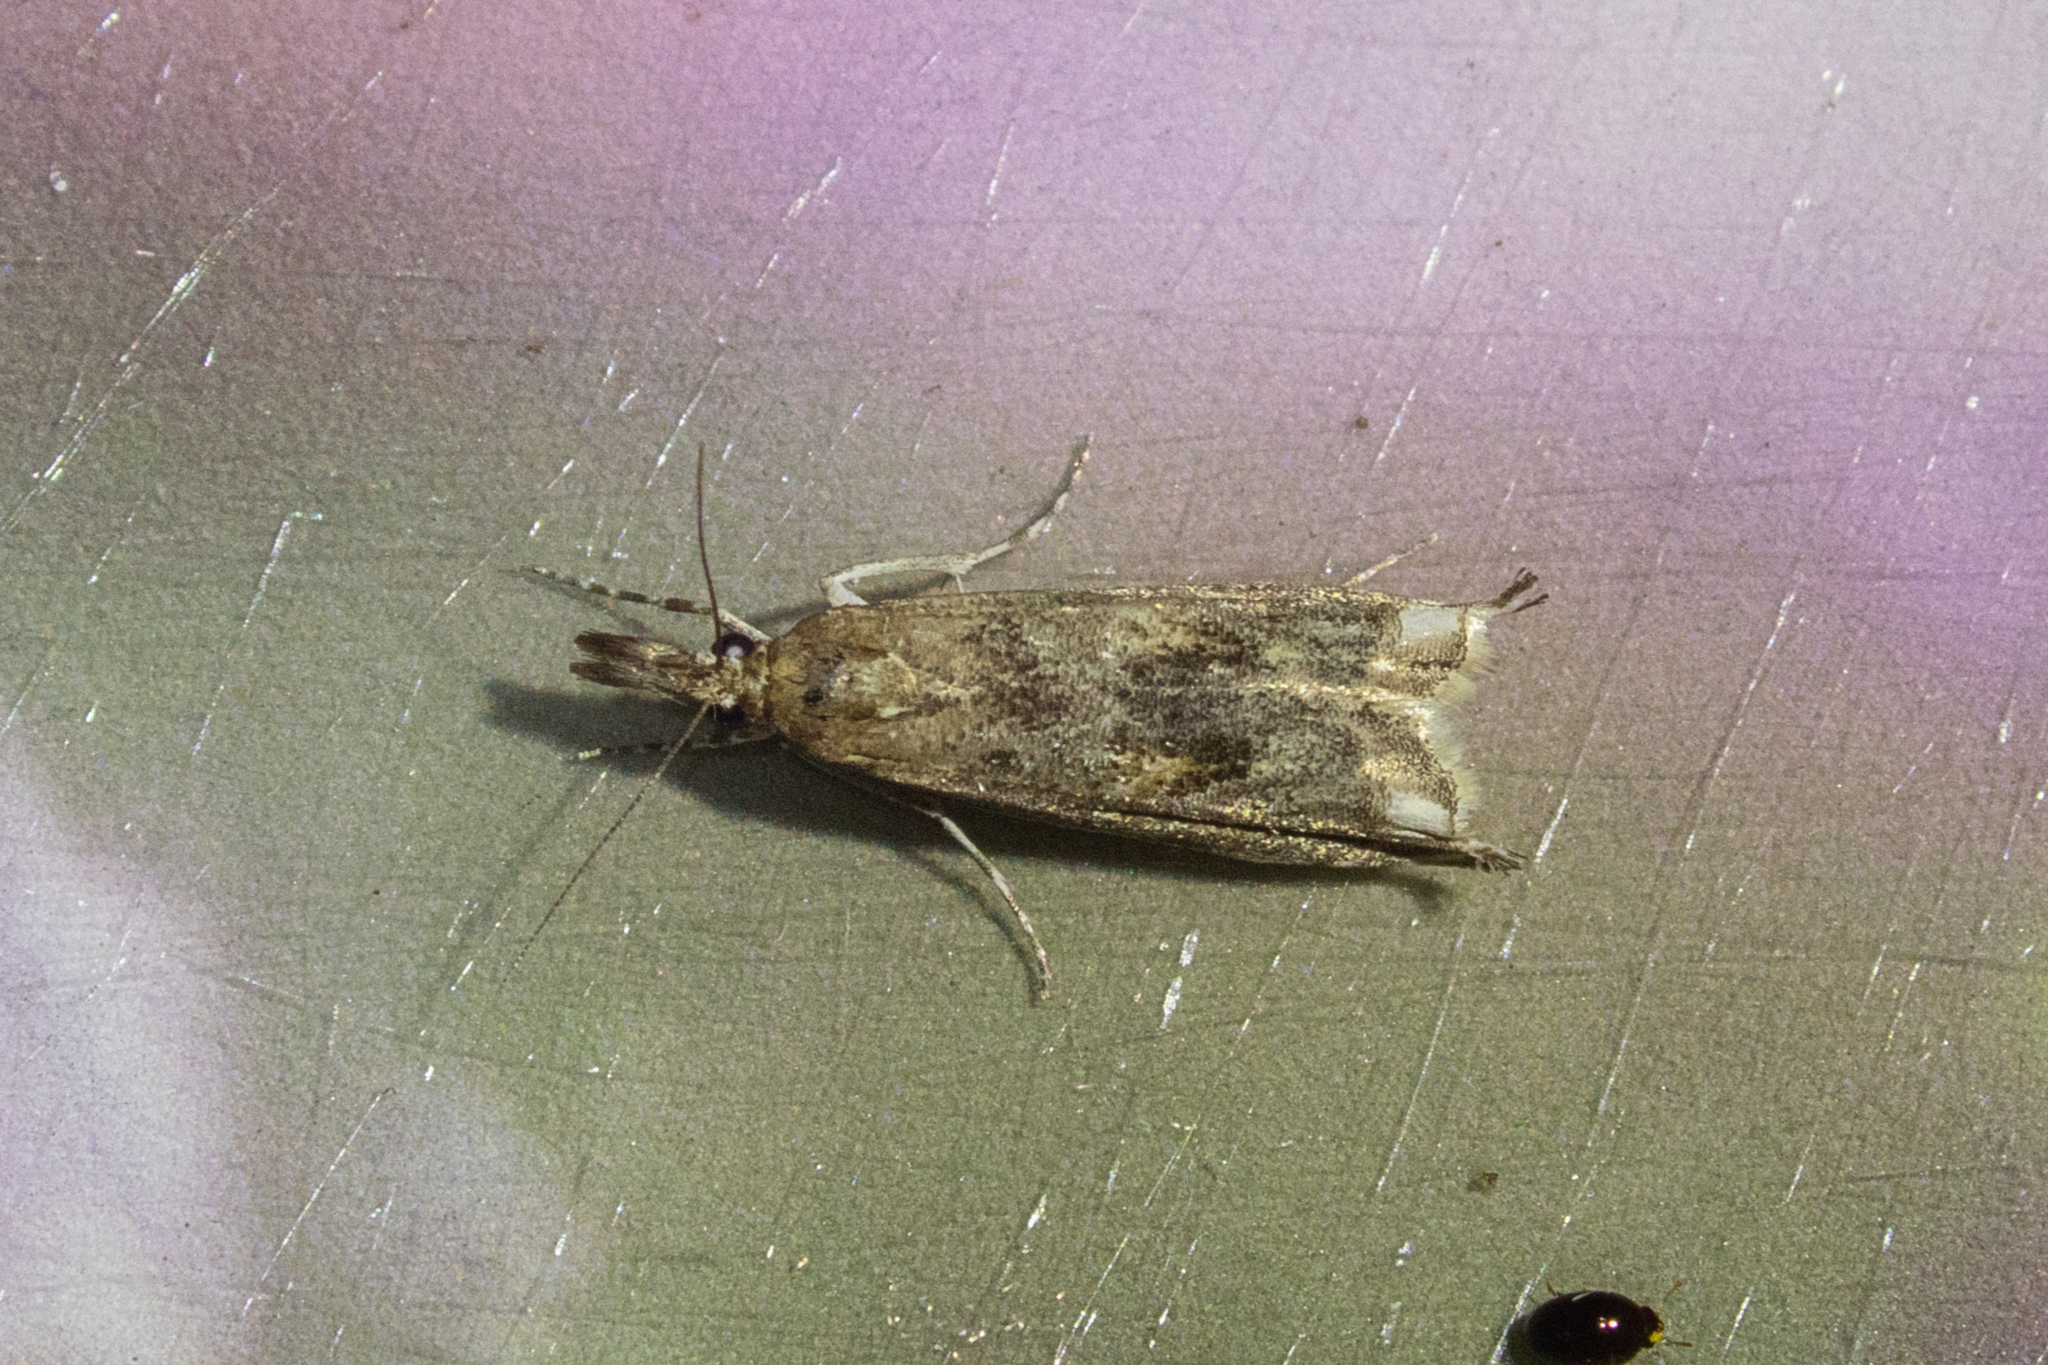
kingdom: Animalia
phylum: Arthropoda
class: Insecta
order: Lepidoptera
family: Crambidae
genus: Prionapteryx
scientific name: Prionapteryx achatina
